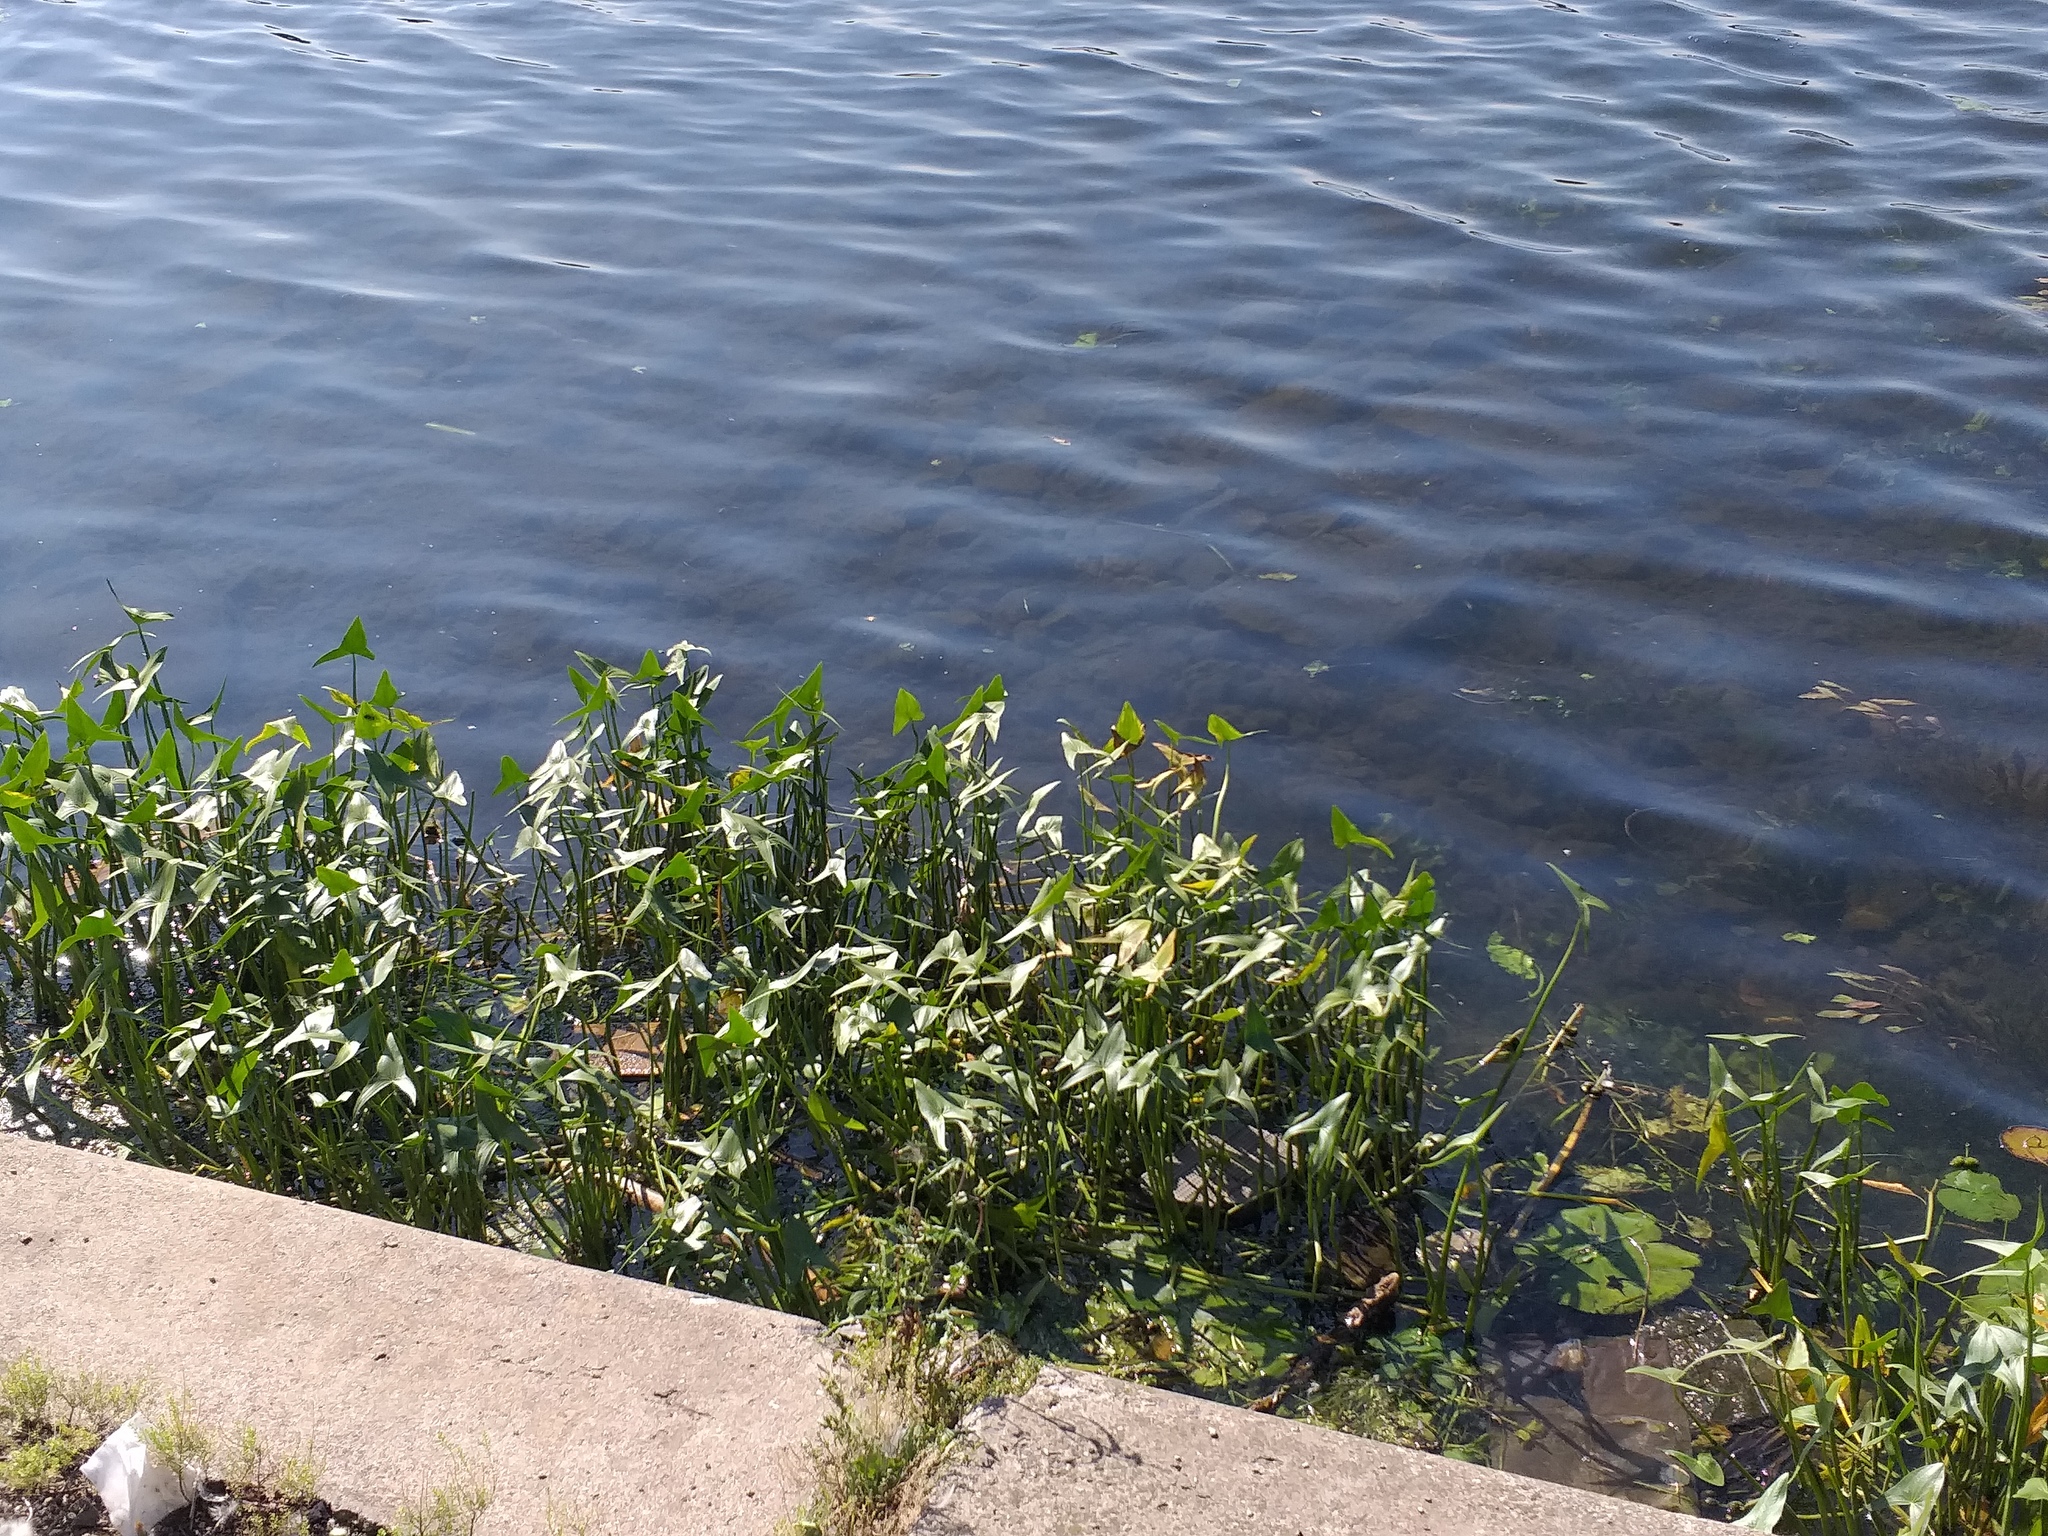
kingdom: Plantae
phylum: Tracheophyta
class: Liliopsida
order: Alismatales
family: Alismataceae
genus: Sagittaria
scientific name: Sagittaria sagittifolia
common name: Arrowhead
